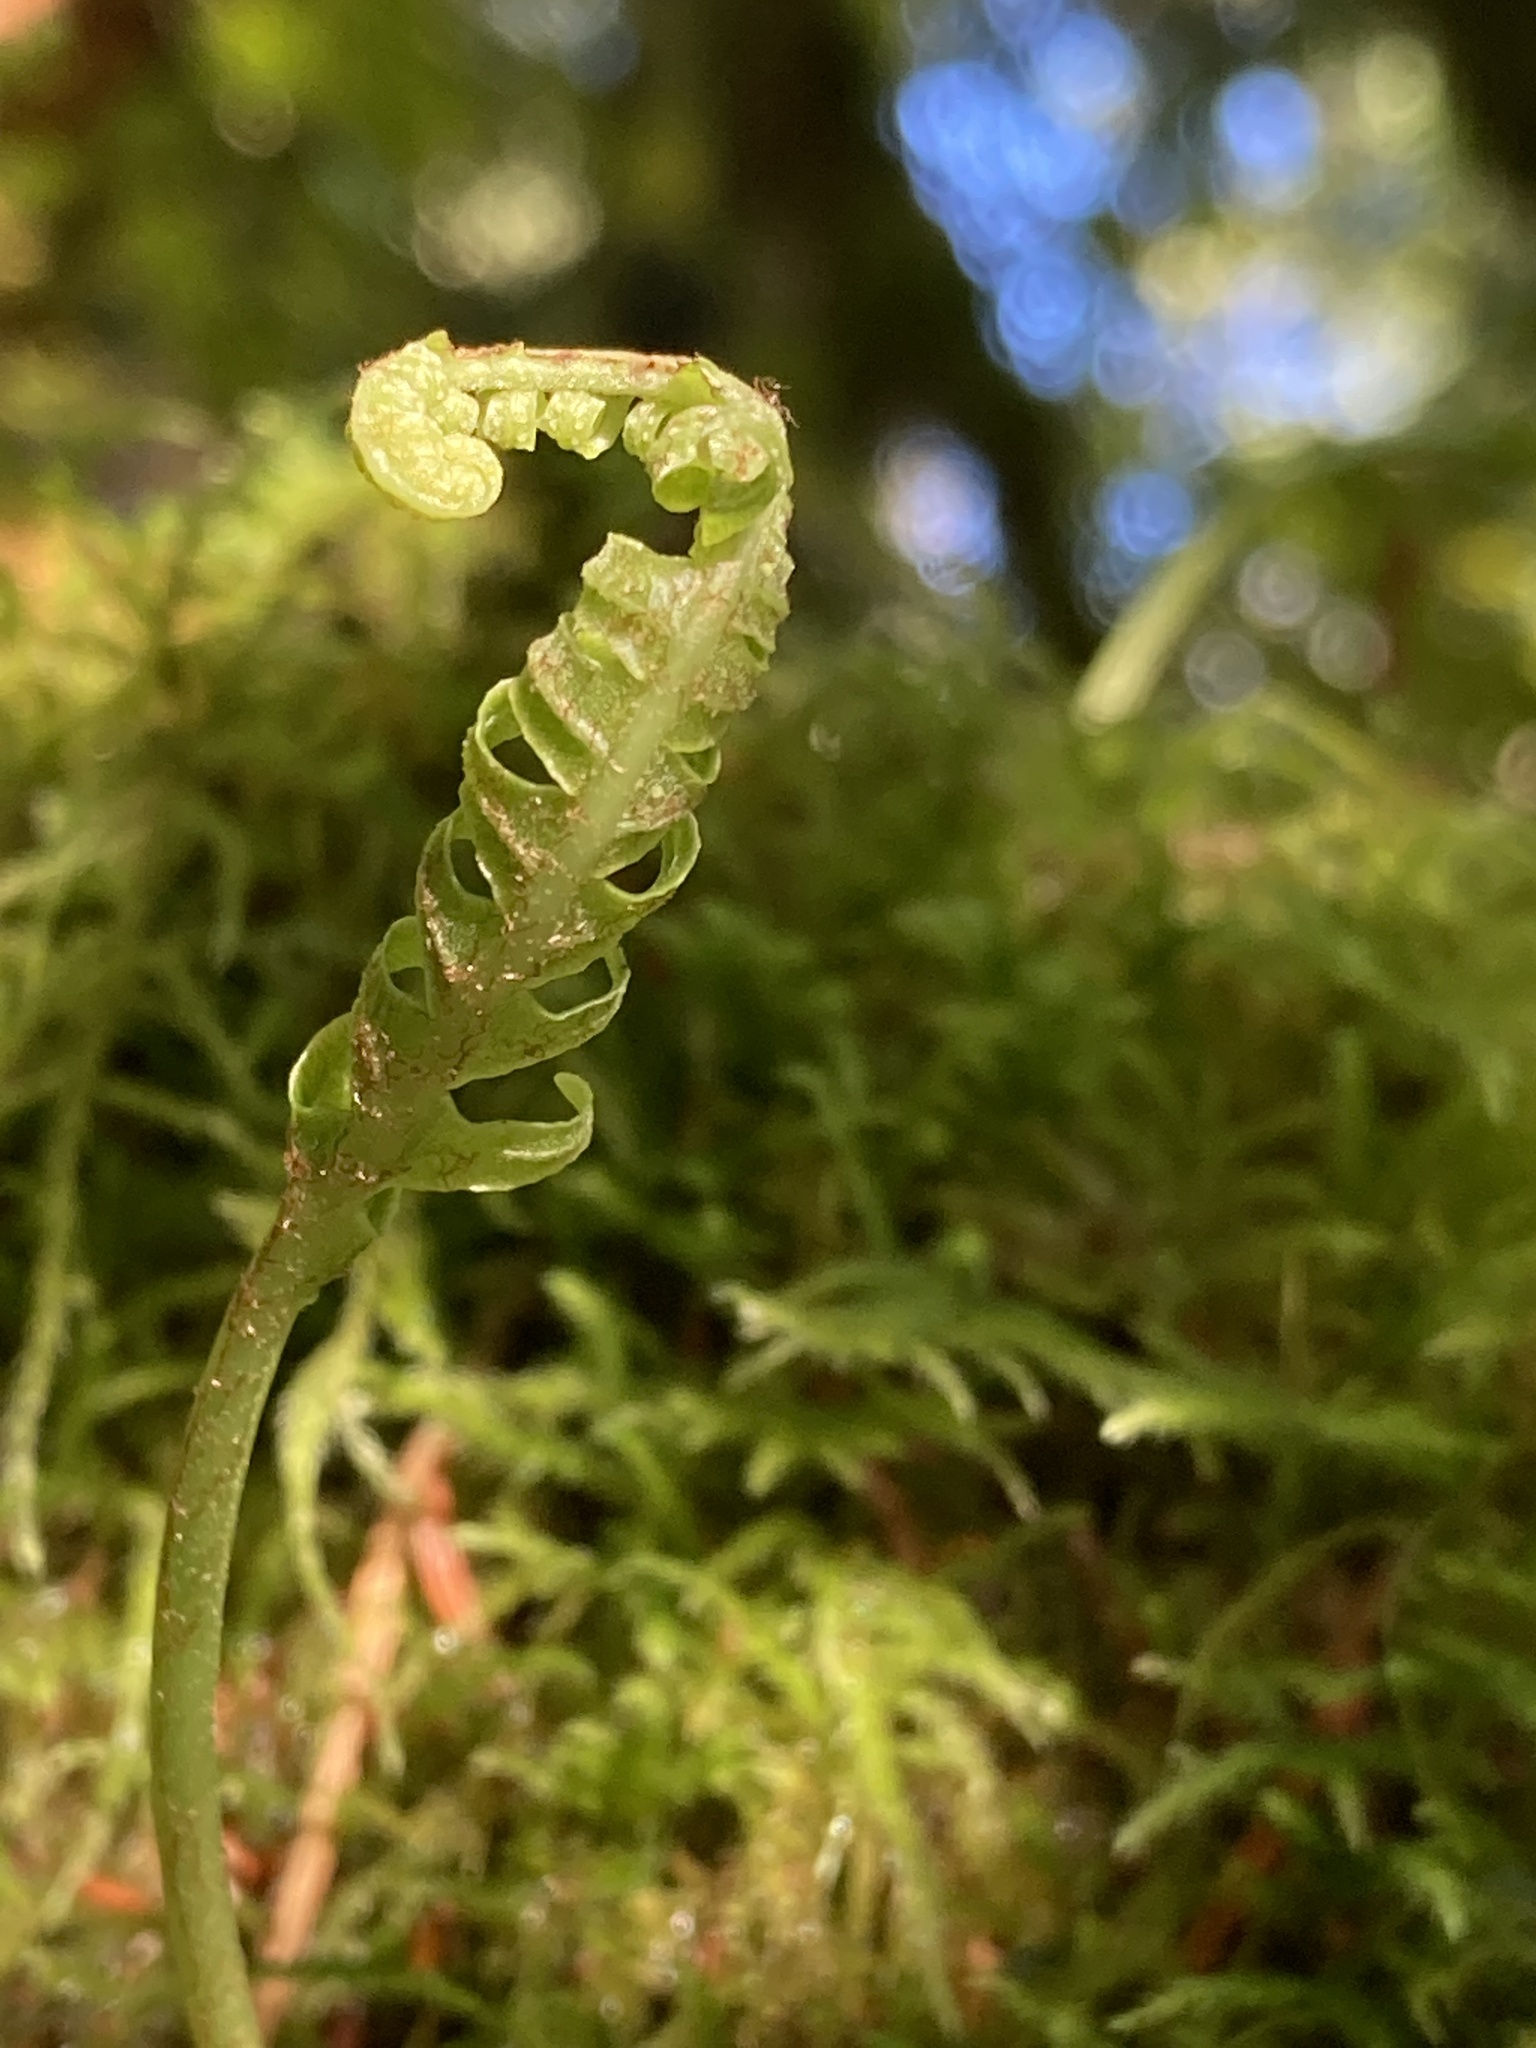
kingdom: Plantae
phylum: Tracheophyta
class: Polypodiopsida
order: Polypodiales
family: Polypodiaceae
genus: Polypodium
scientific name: Polypodium glycyrrhiza
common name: Licorice fern
